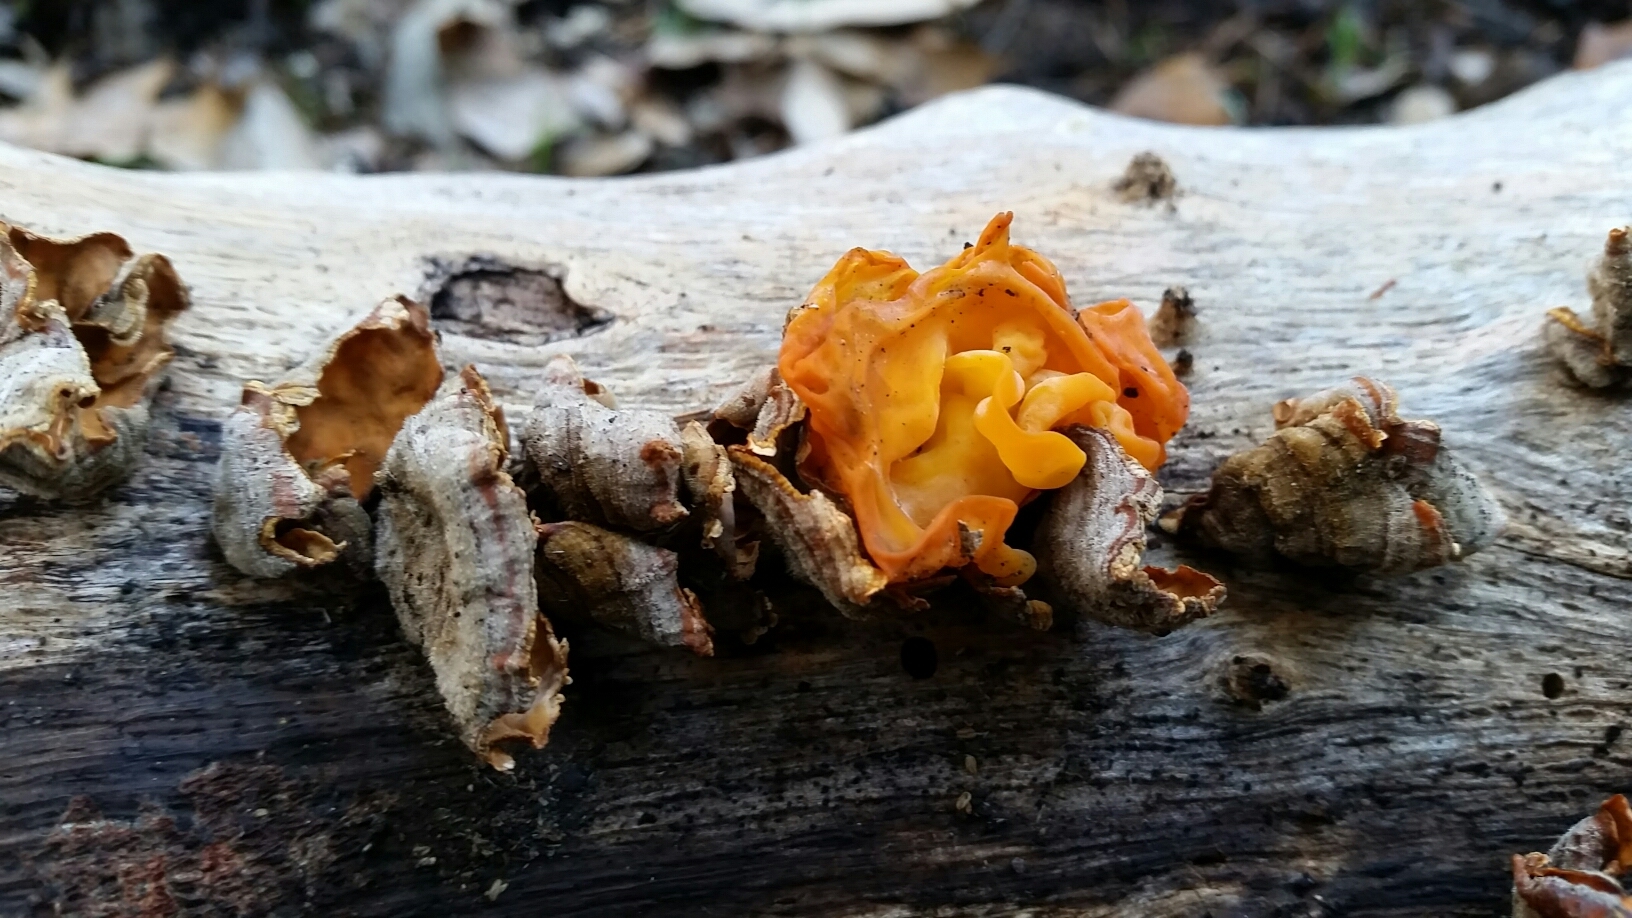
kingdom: Fungi
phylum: Basidiomycota
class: Tremellomycetes
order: Tremellales
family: Naemateliaceae
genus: Naematelia
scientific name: Naematelia aurantia
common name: Golden ear
